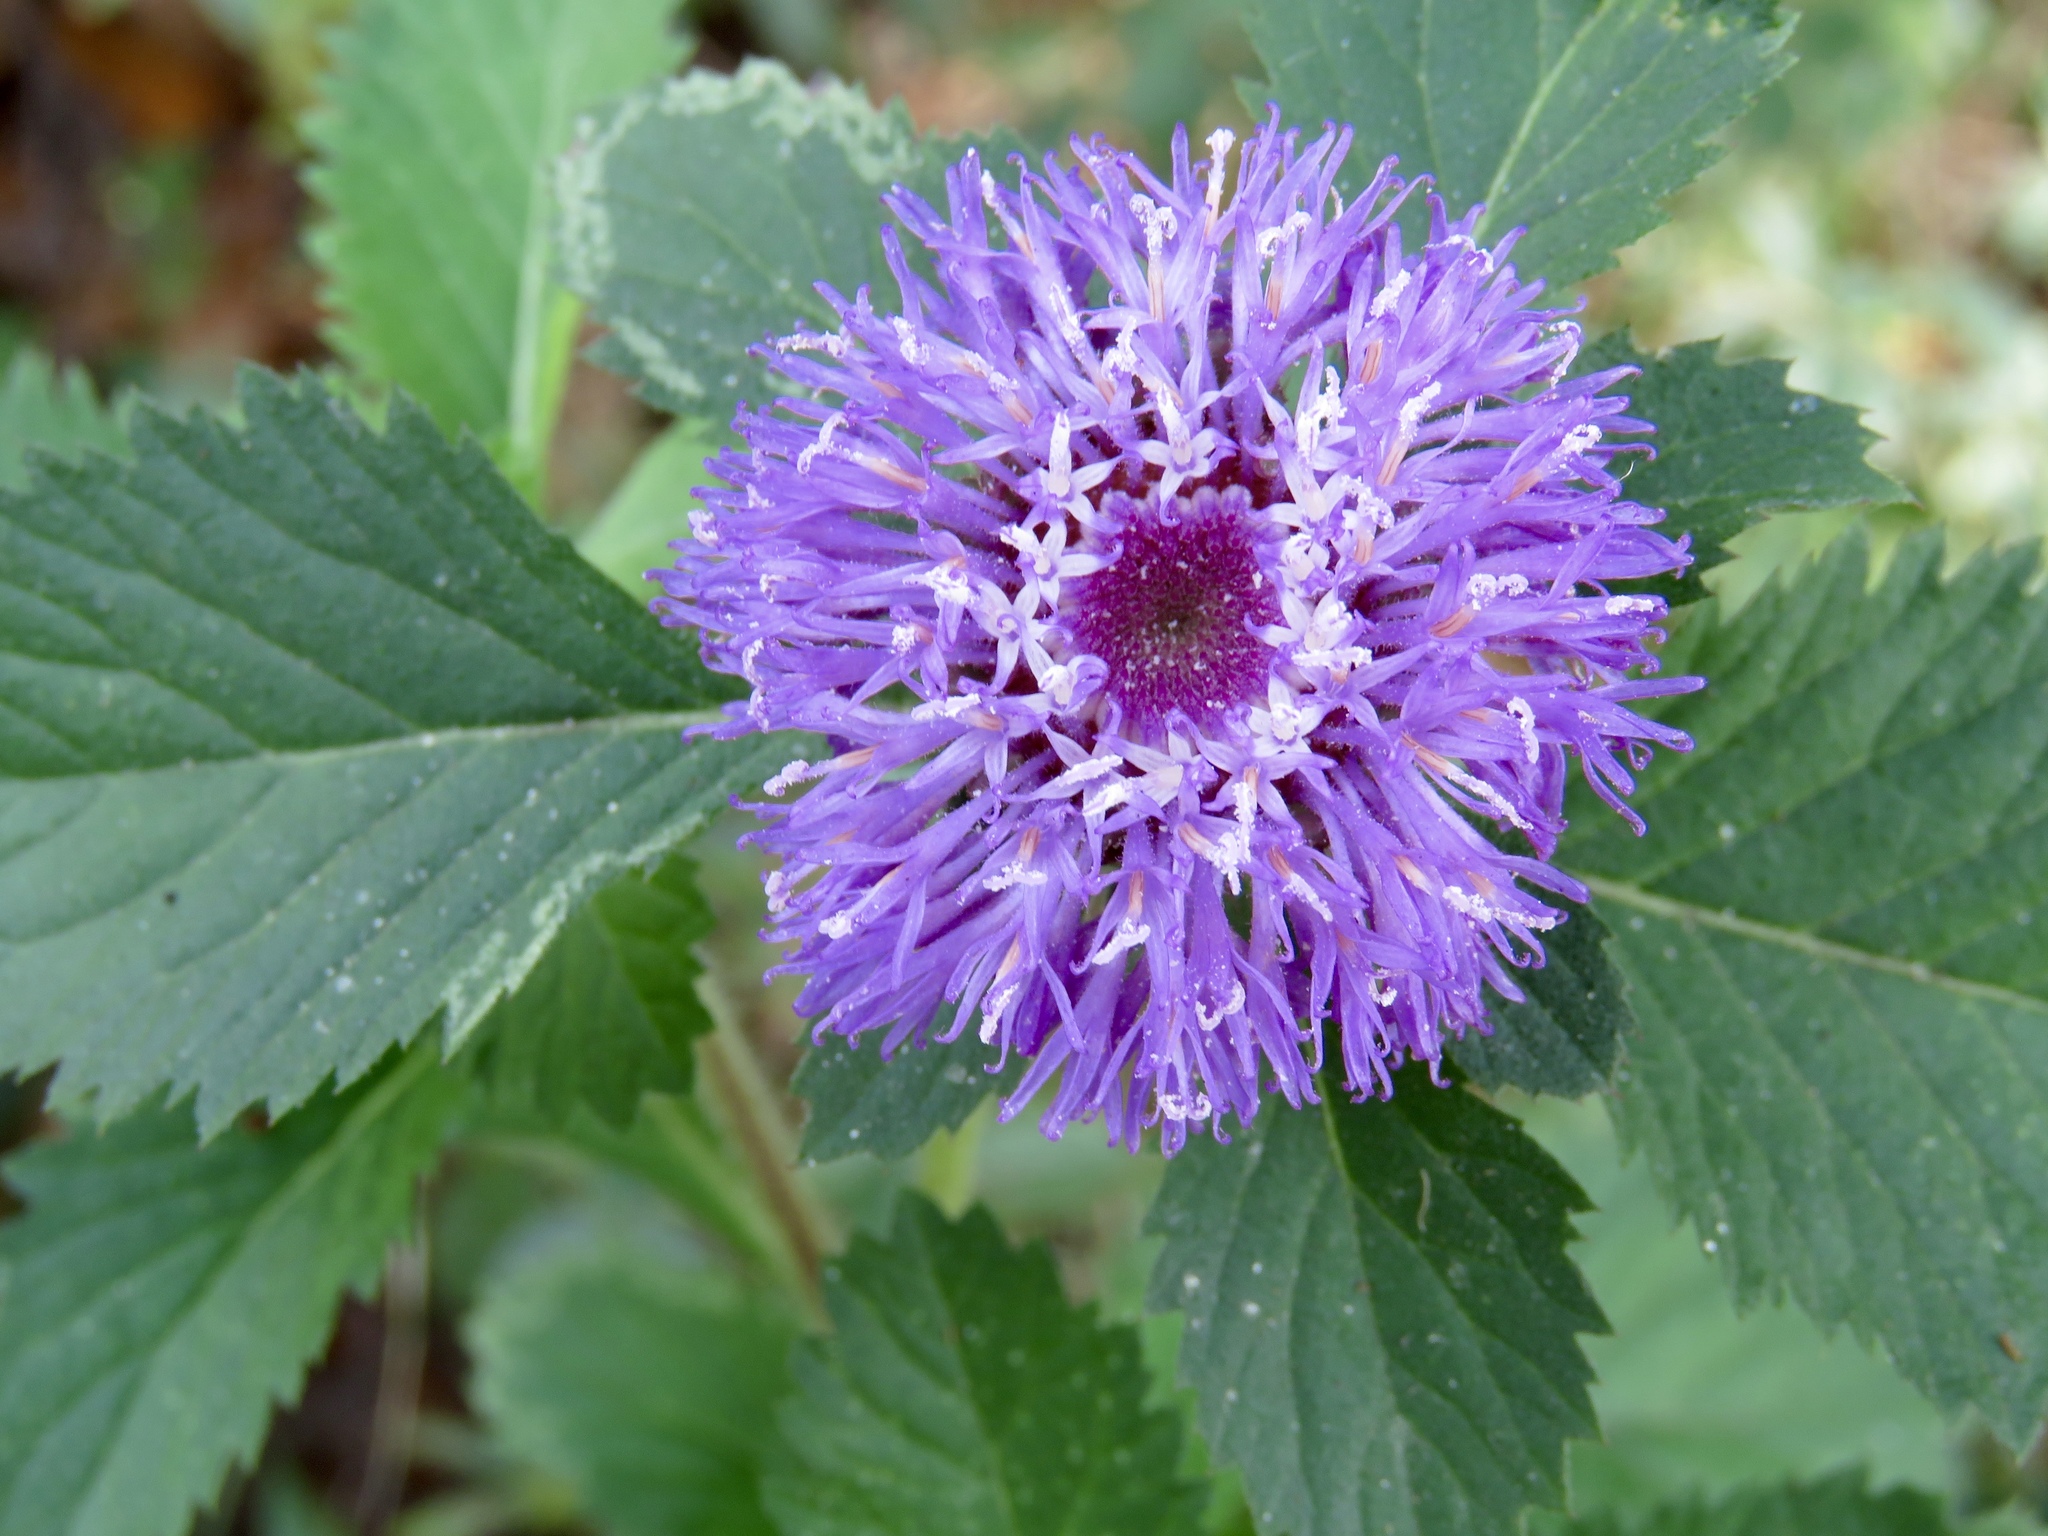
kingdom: Plantae
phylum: Tracheophyta
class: Magnoliopsida
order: Asterales
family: Asteraceae
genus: Centratherum
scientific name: Centratherum punctatum
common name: Larkdaisy
